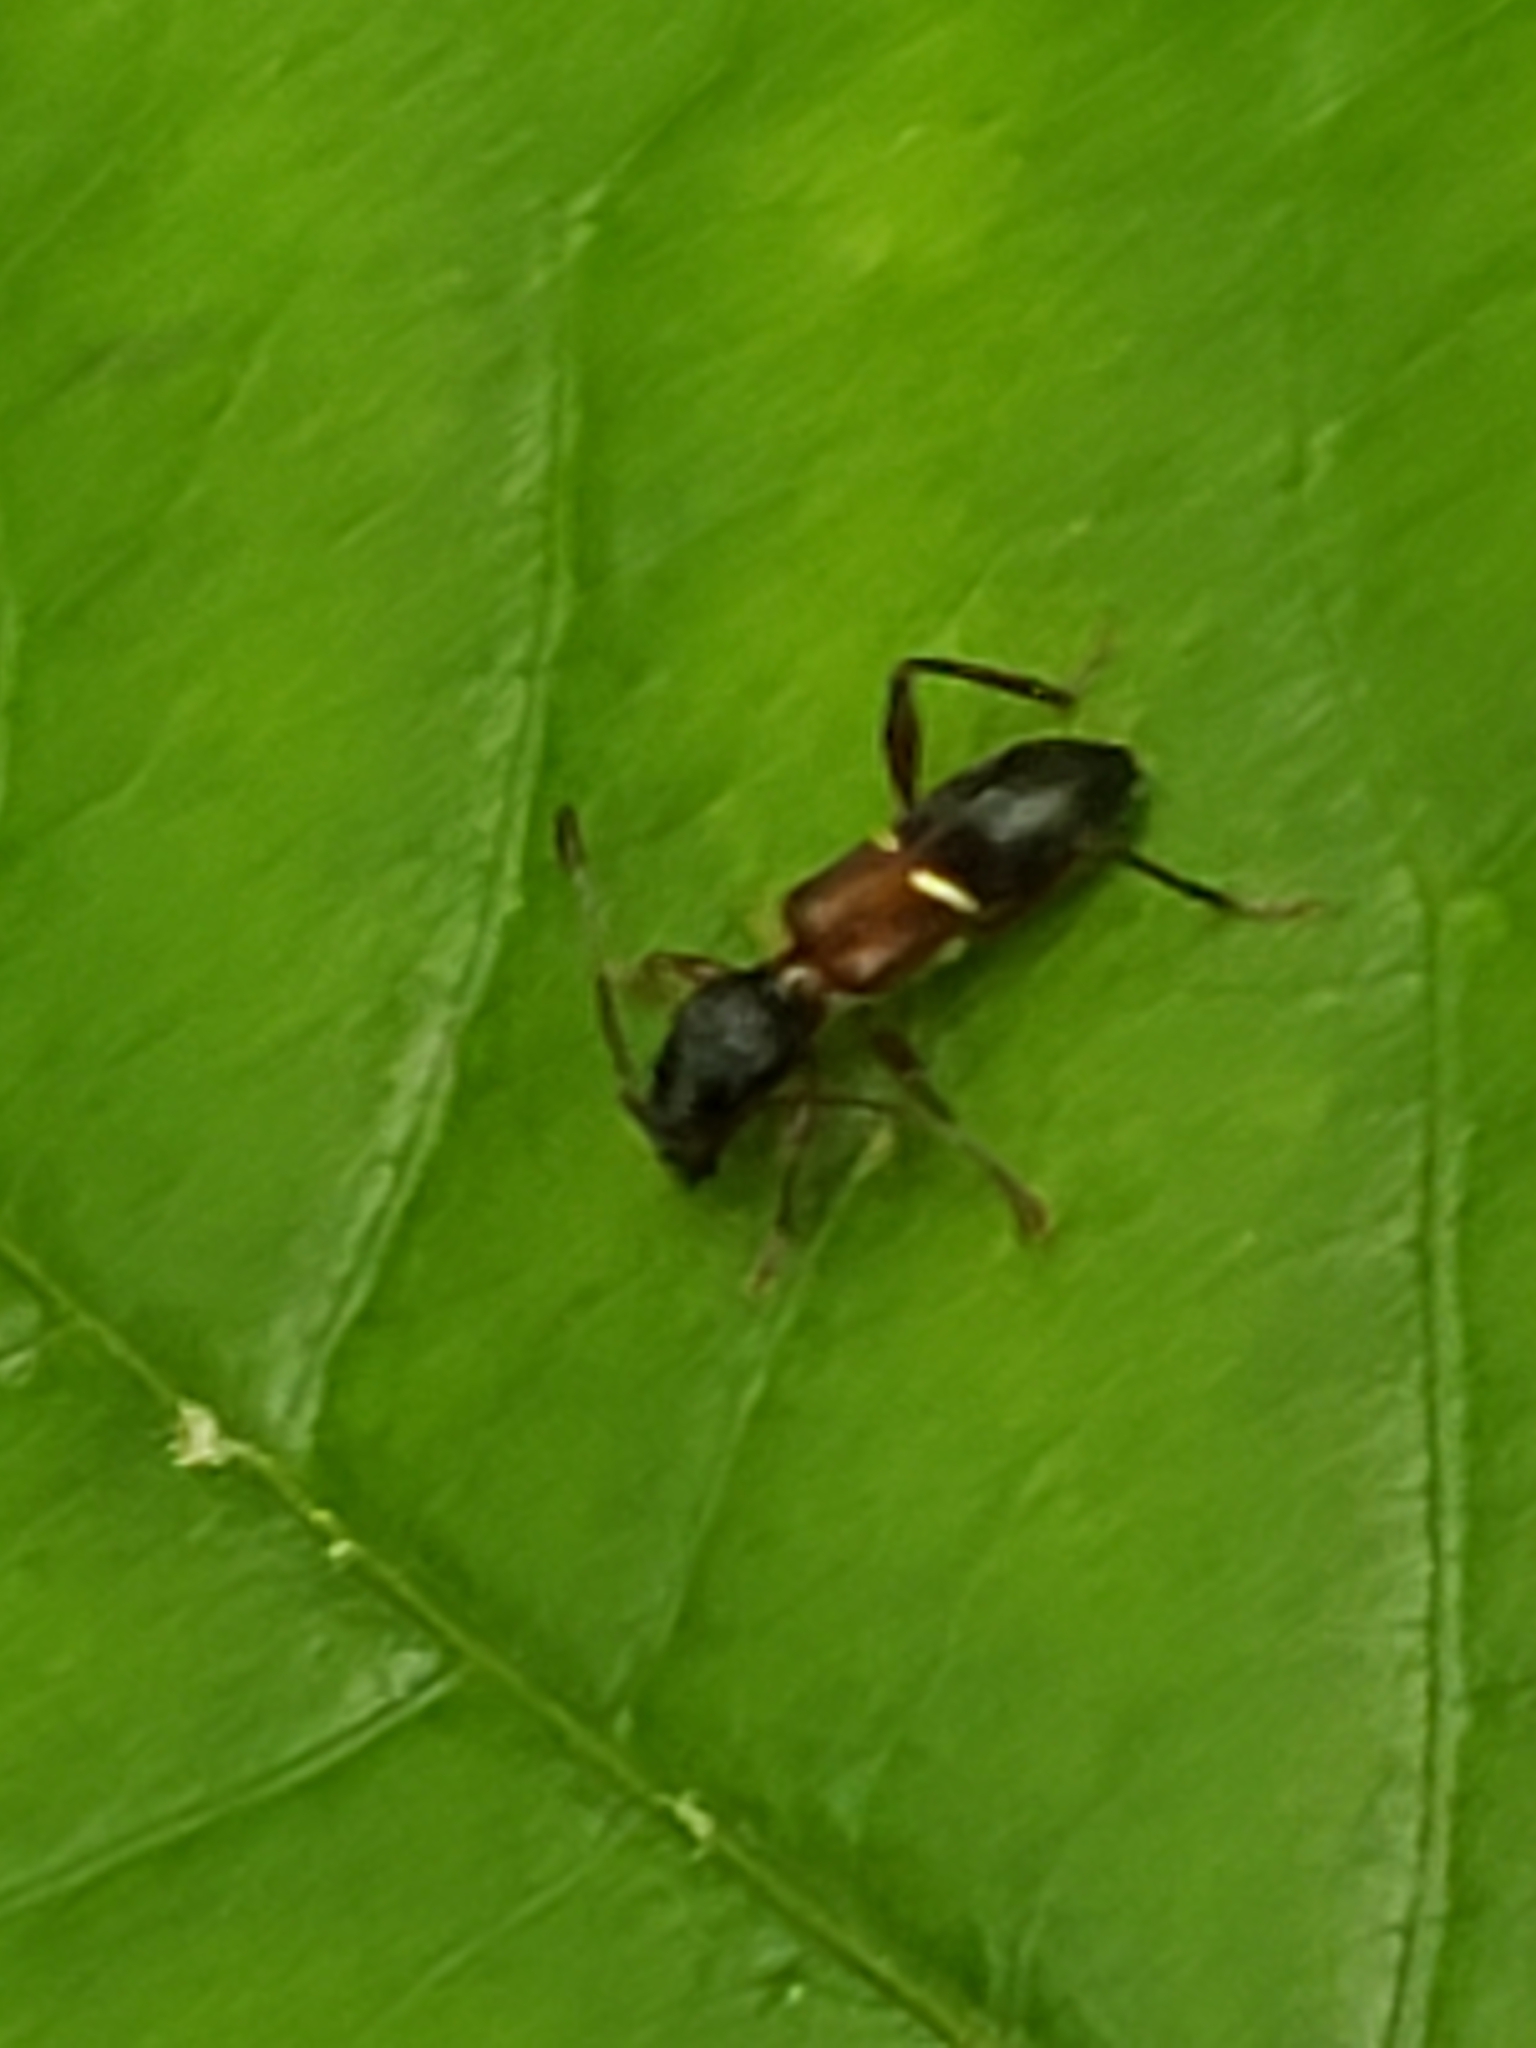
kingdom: Animalia
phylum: Arthropoda
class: Insecta
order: Coleoptera
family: Cerambycidae
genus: Euderces
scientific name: Euderces picipes
